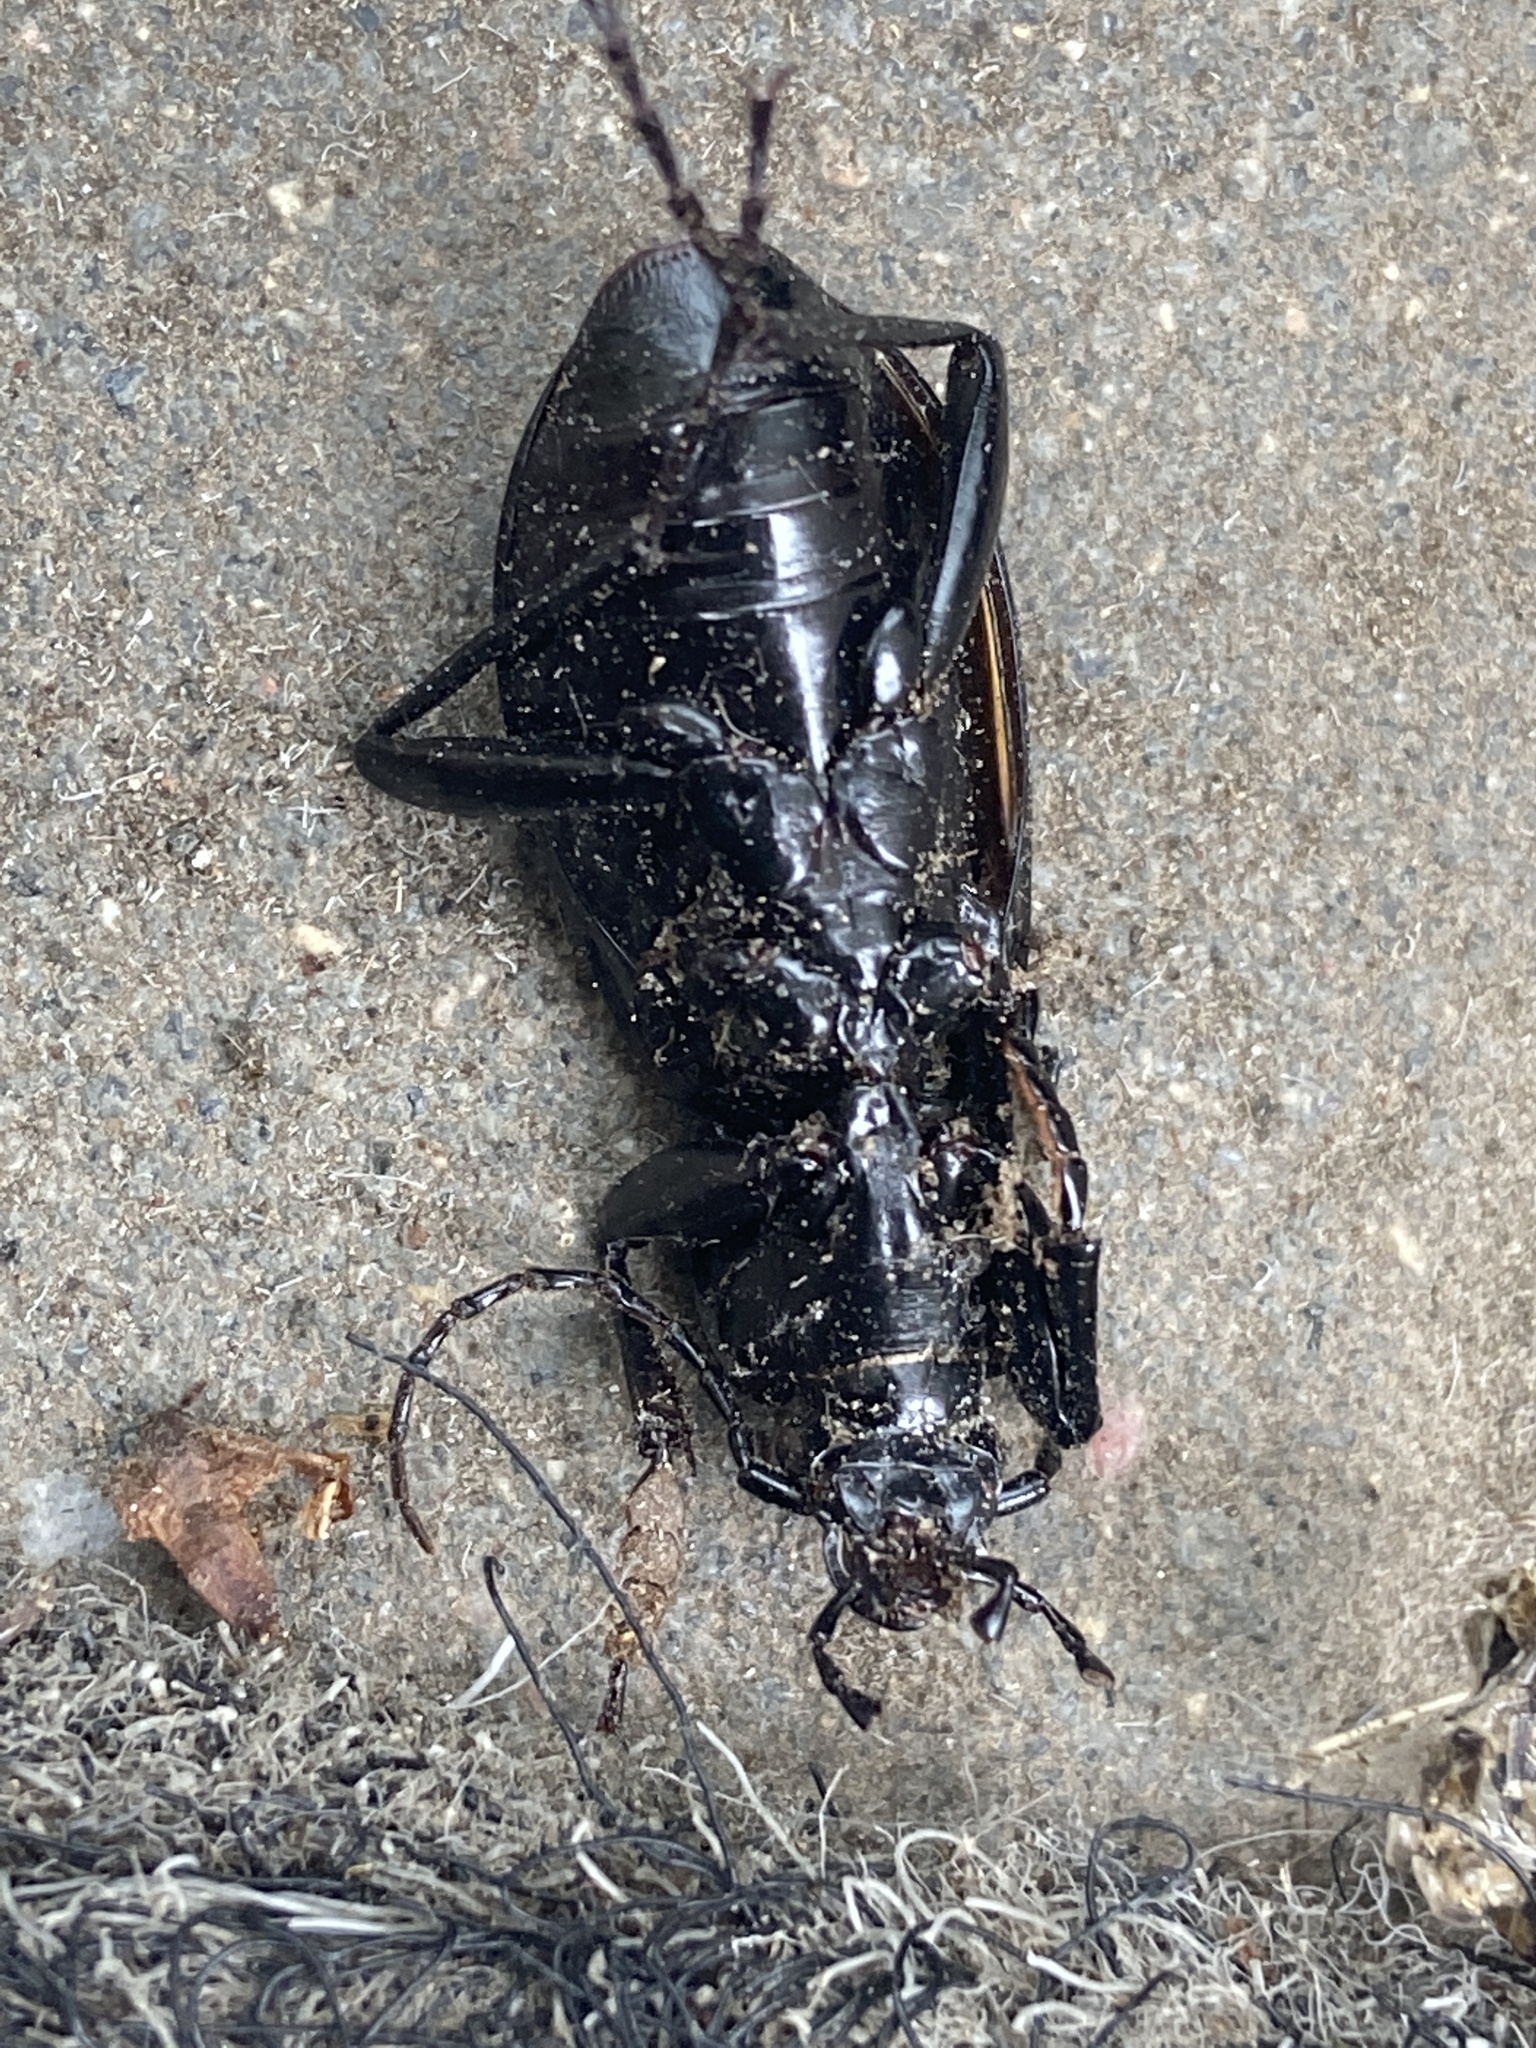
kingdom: Animalia
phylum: Arthropoda
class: Insecta
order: Coleoptera
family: Carabidae
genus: Carabus
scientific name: Carabus hortensis
